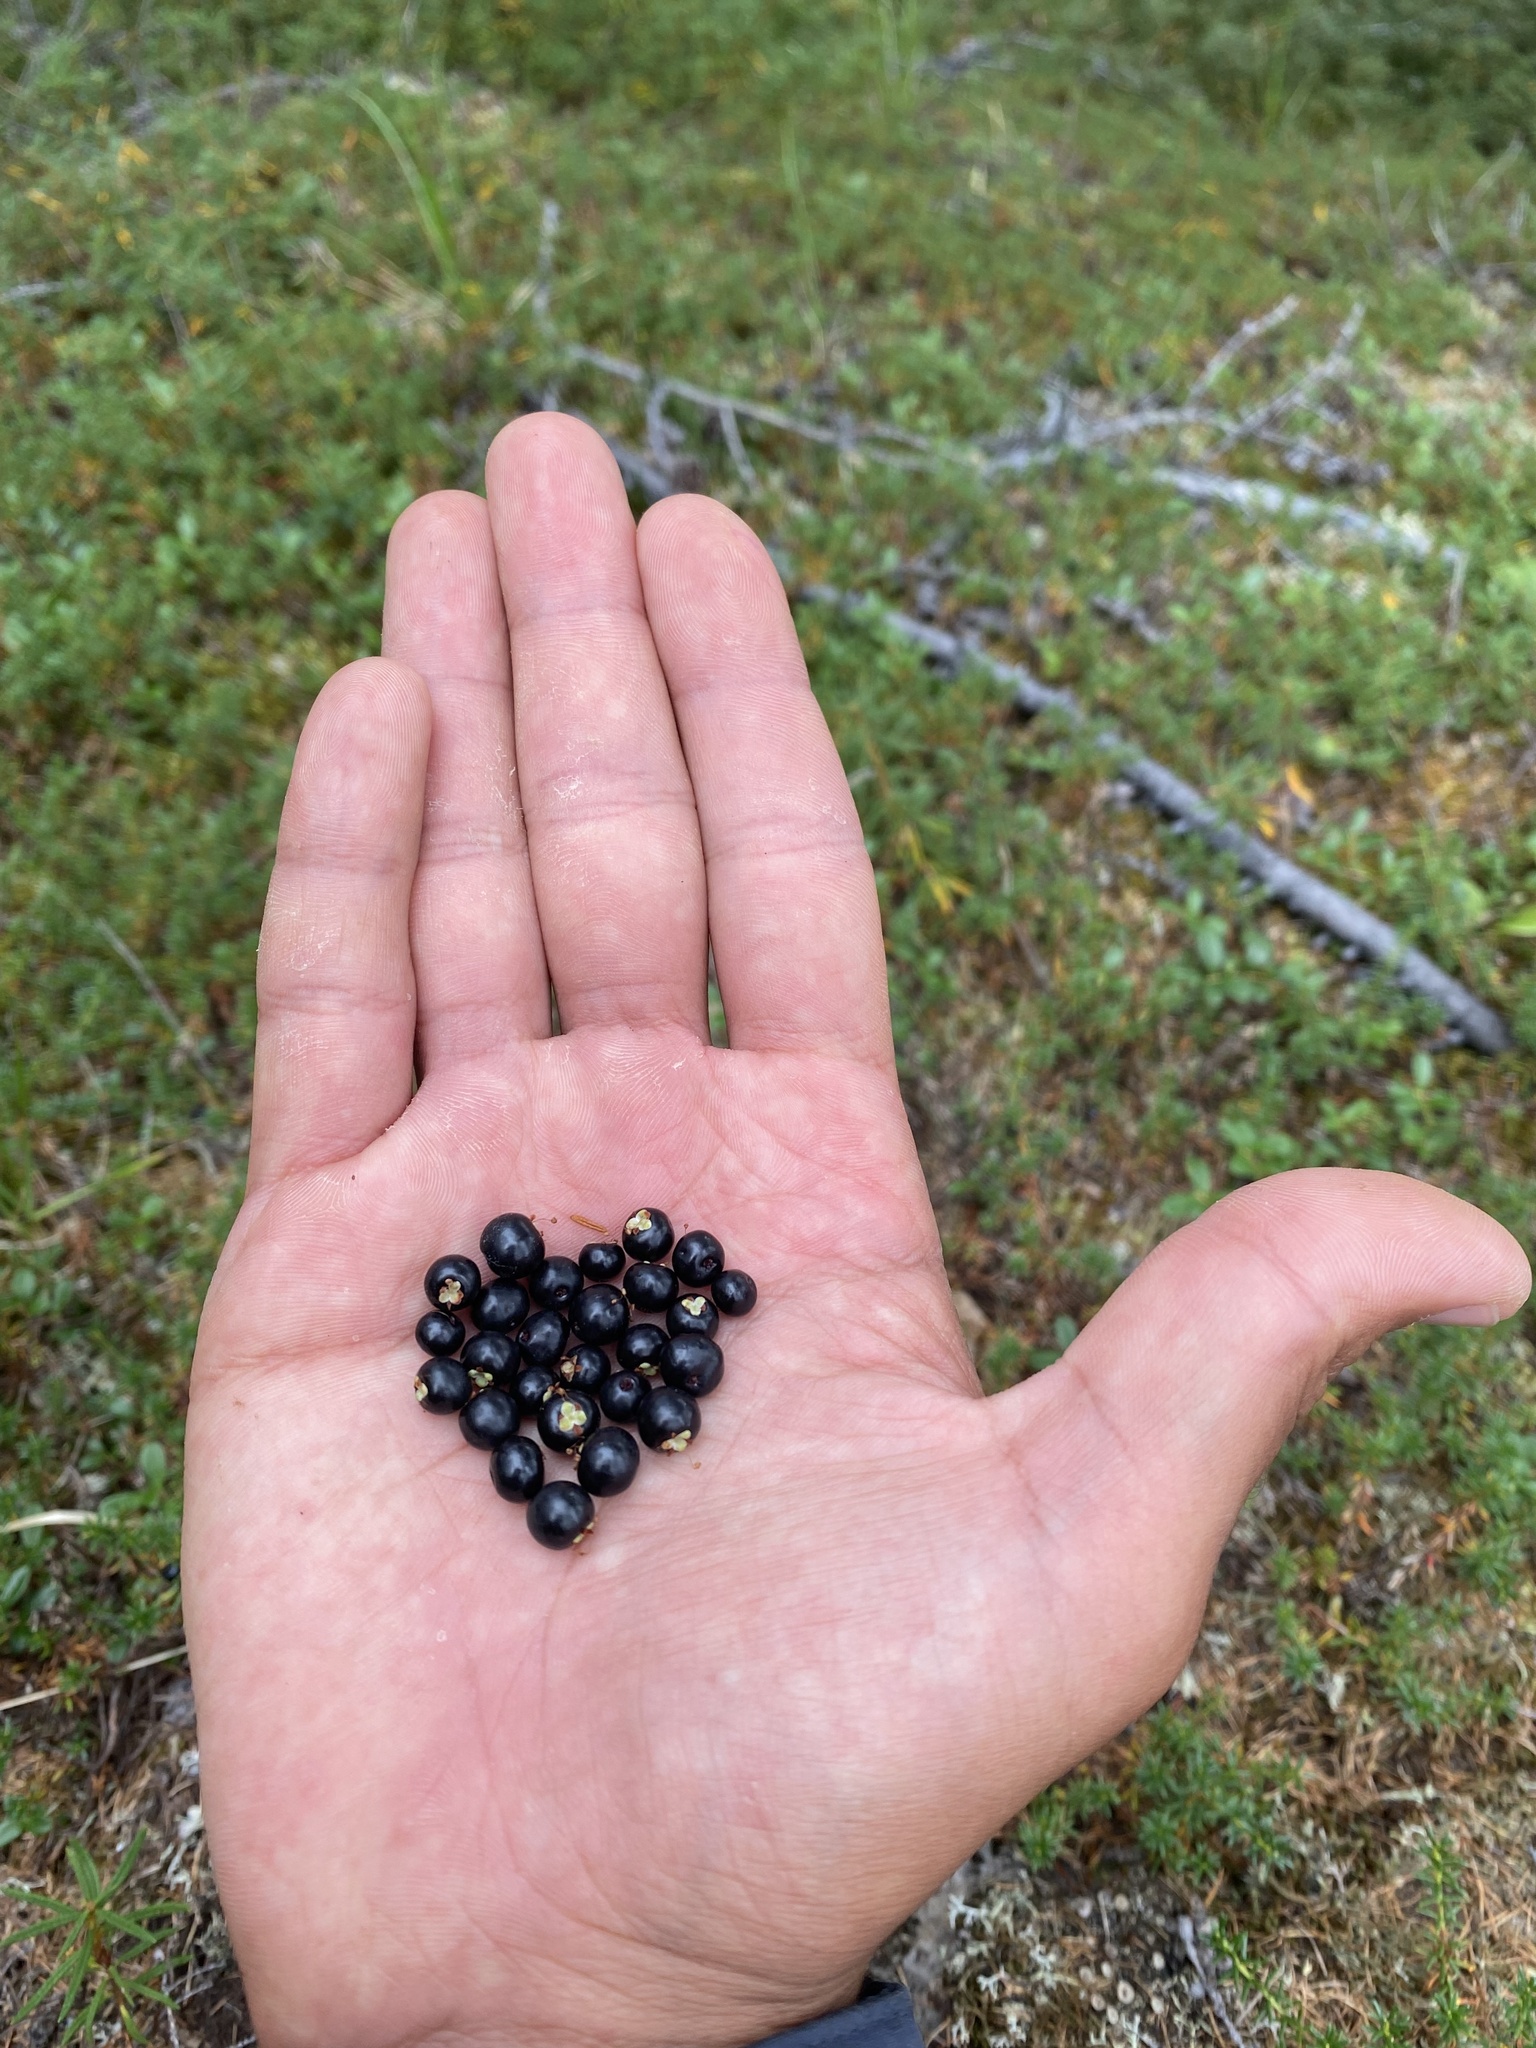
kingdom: Plantae
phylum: Tracheophyta
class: Magnoliopsida
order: Ericales
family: Ericaceae
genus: Empetrum
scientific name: Empetrum nigrum
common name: Black crowberry
